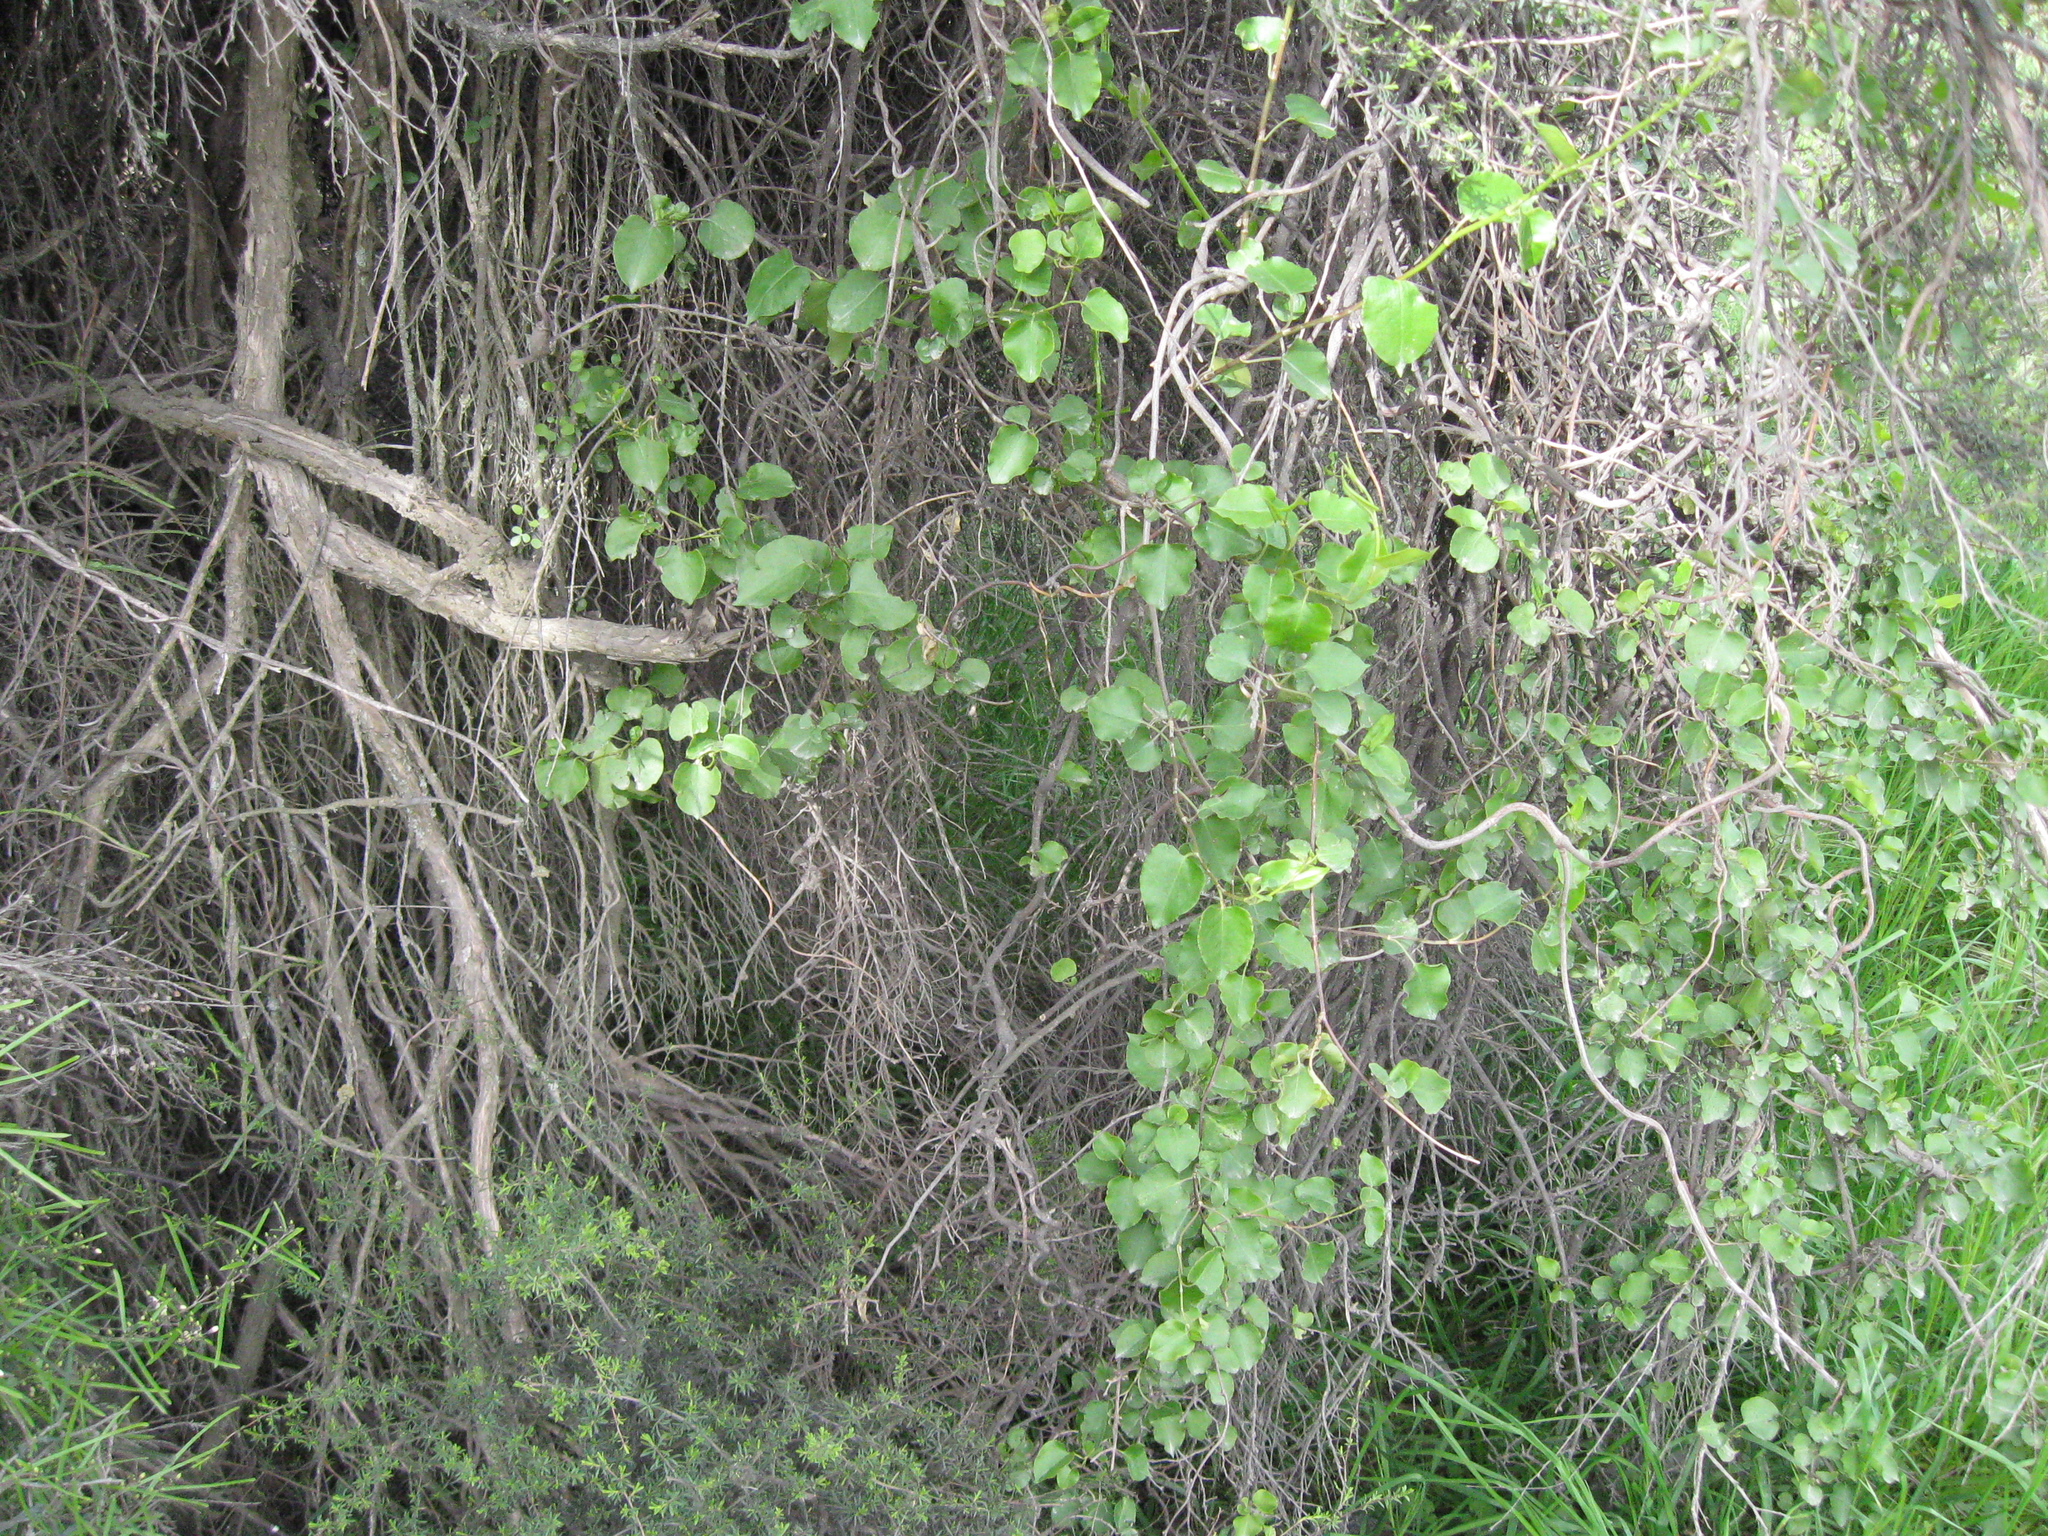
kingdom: Plantae
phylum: Tracheophyta
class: Magnoliopsida
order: Caryophyllales
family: Polygonaceae
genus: Muehlenbeckia
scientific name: Muehlenbeckia australis
